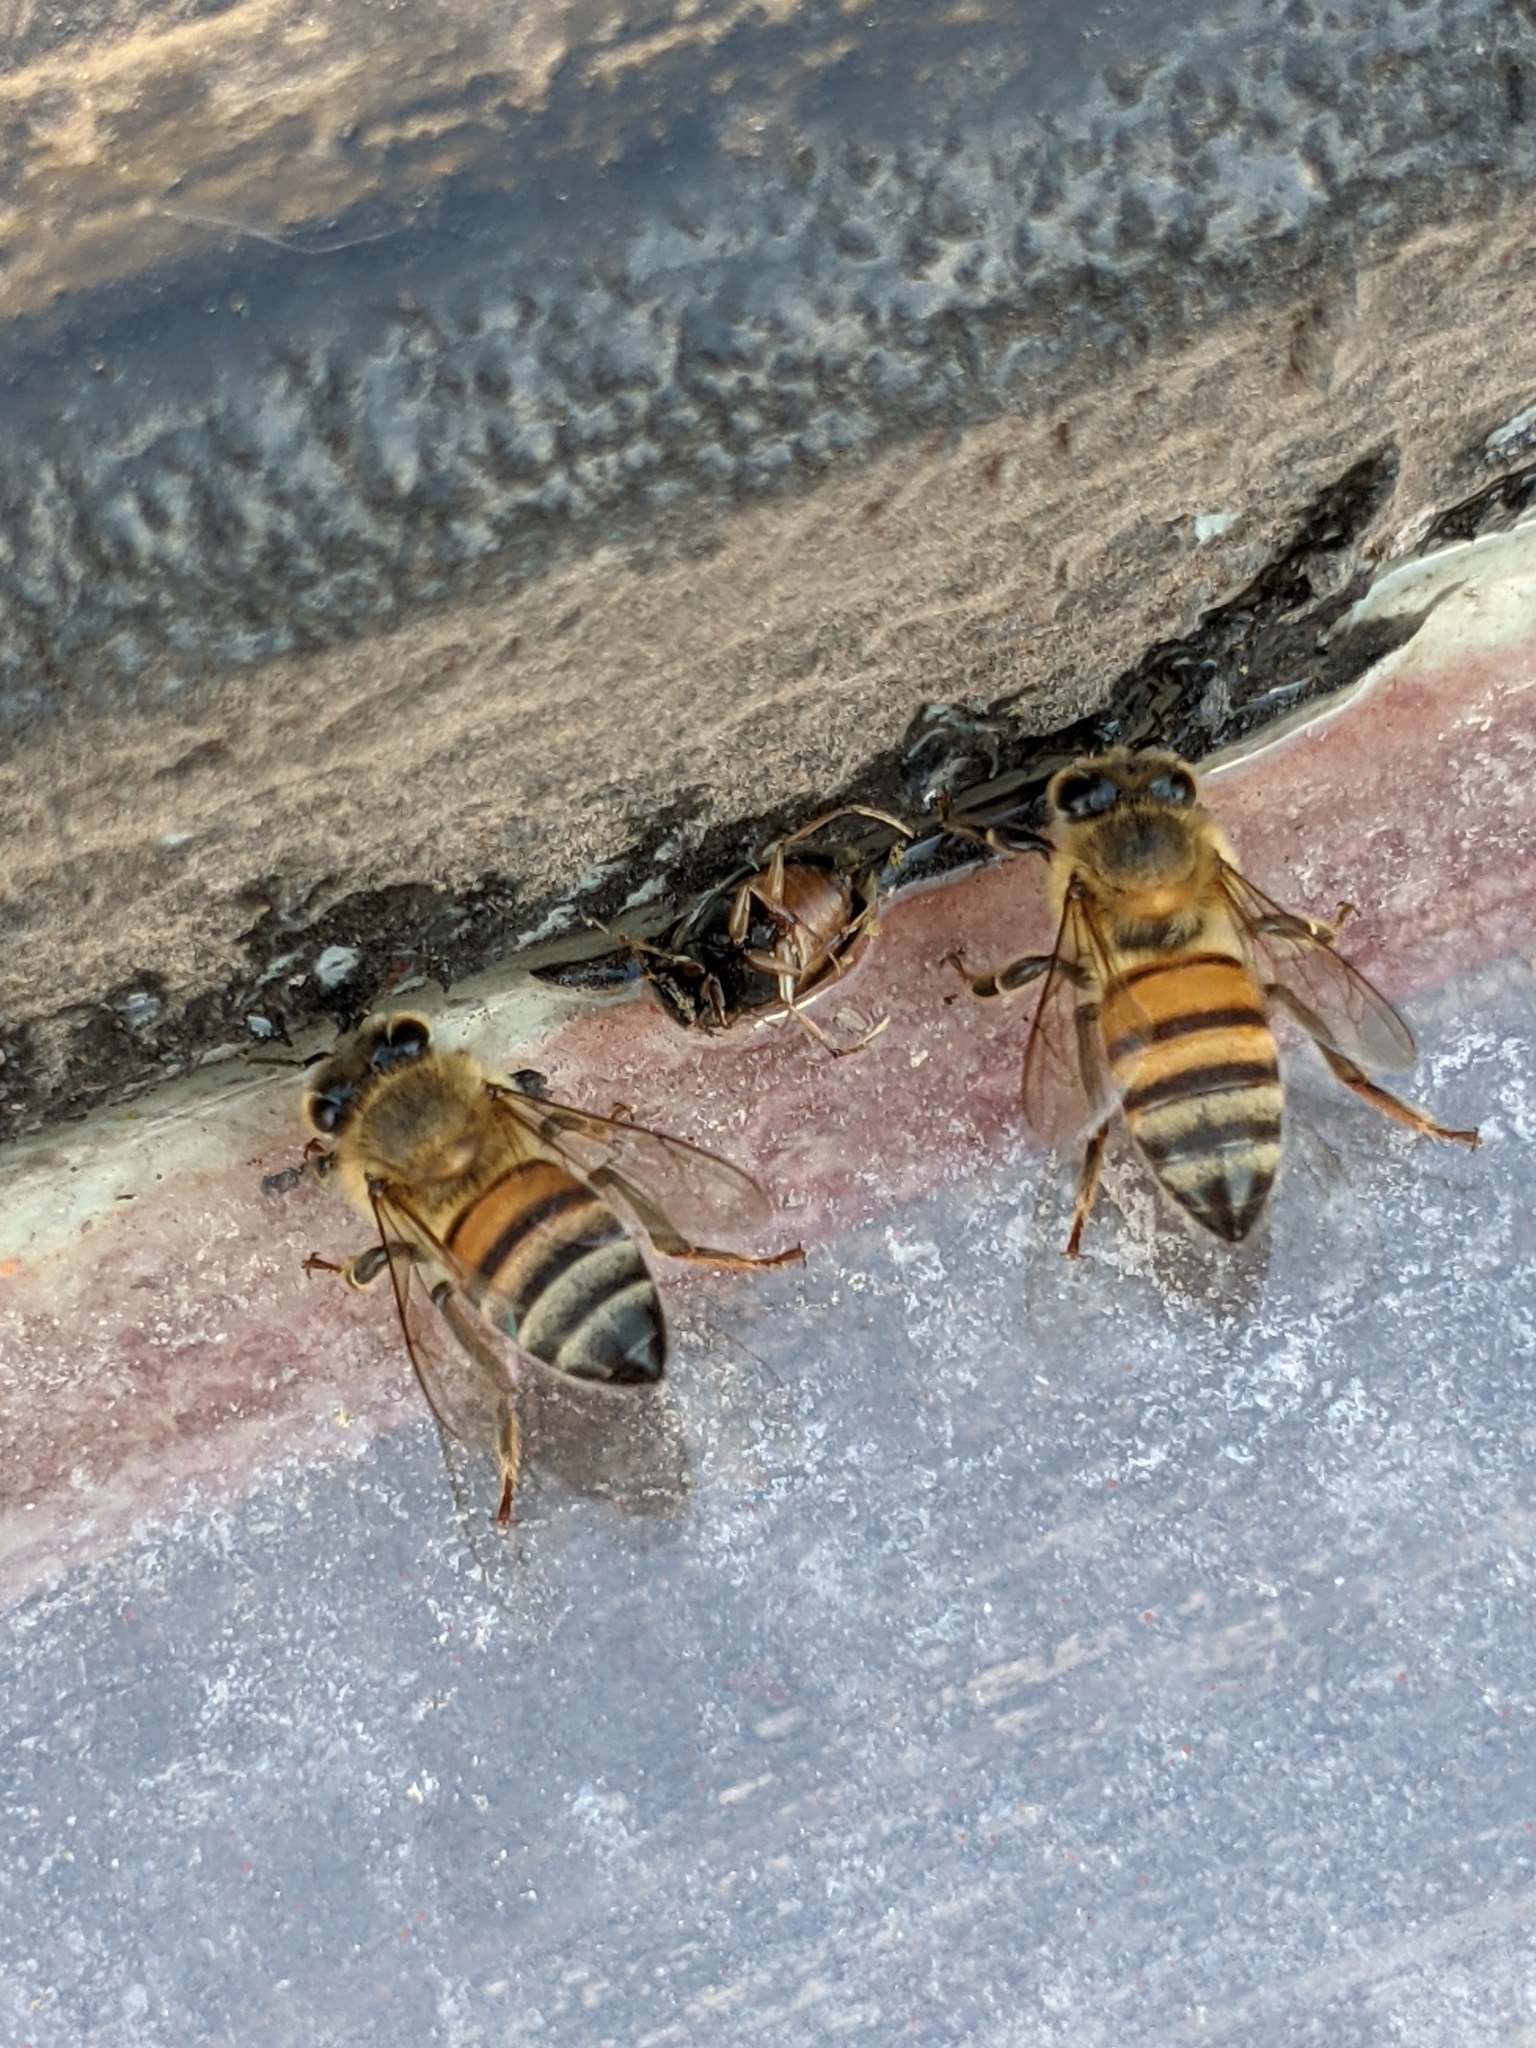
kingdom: Animalia
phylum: Arthropoda
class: Insecta
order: Hymenoptera
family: Apidae
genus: Apis
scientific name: Apis mellifera
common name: Honey bee
